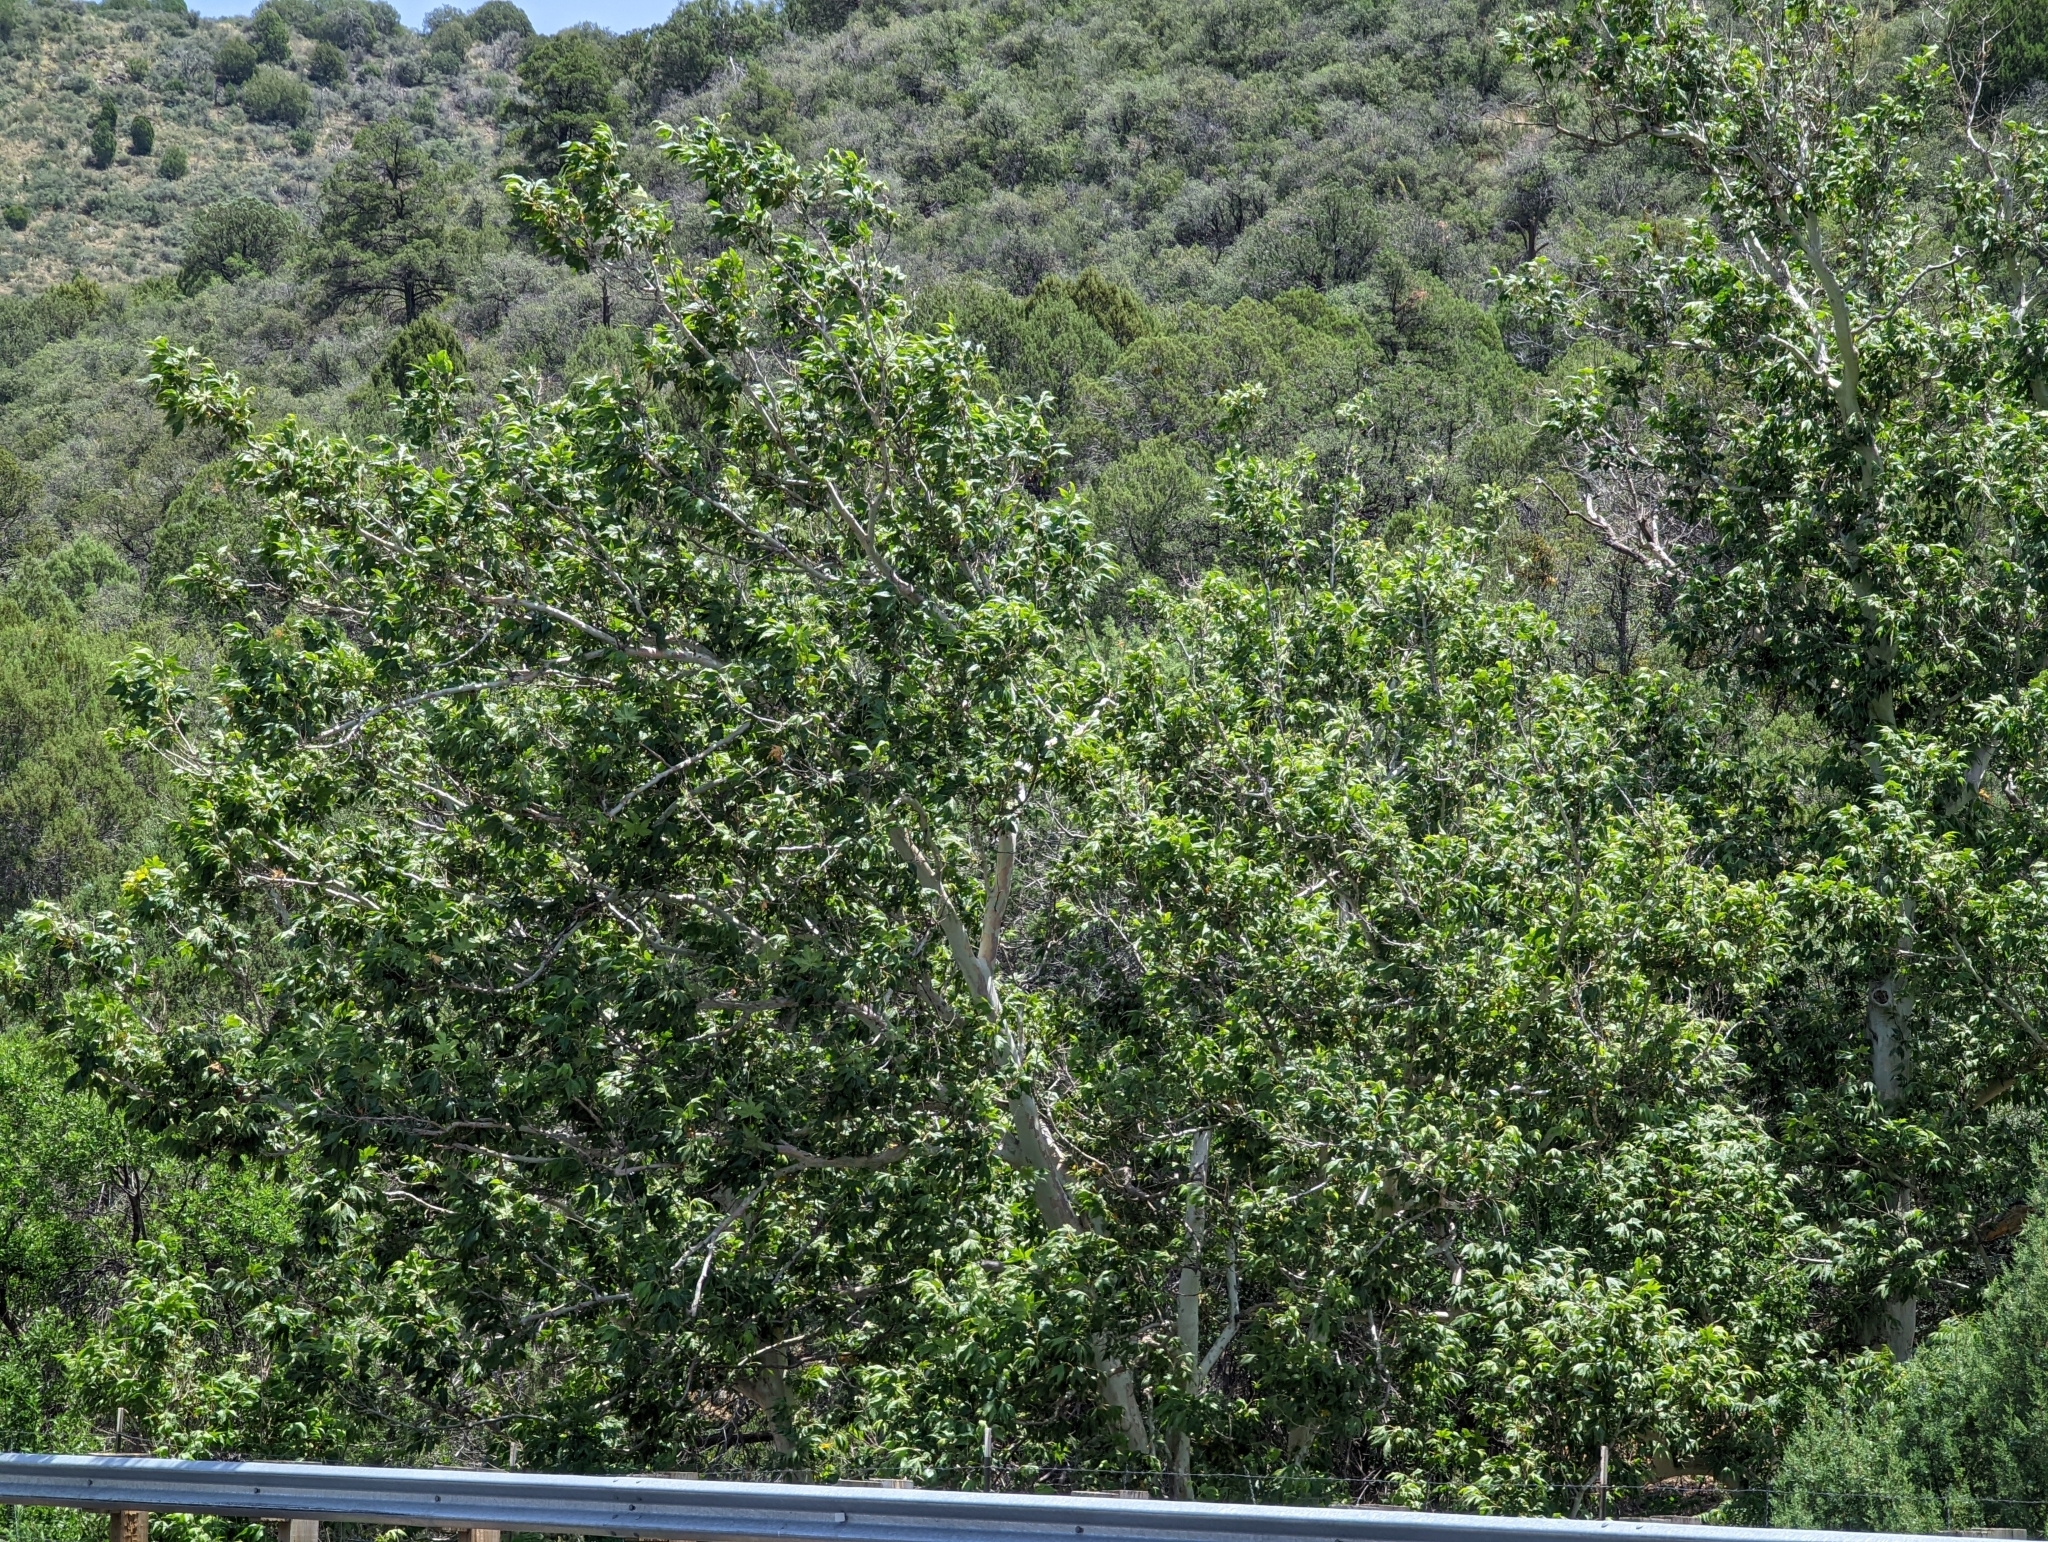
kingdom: Plantae
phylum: Tracheophyta
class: Magnoliopsida
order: Proteales
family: Platanaceae
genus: Platanus
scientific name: Platanus wrightii
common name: Arizona sycamore
